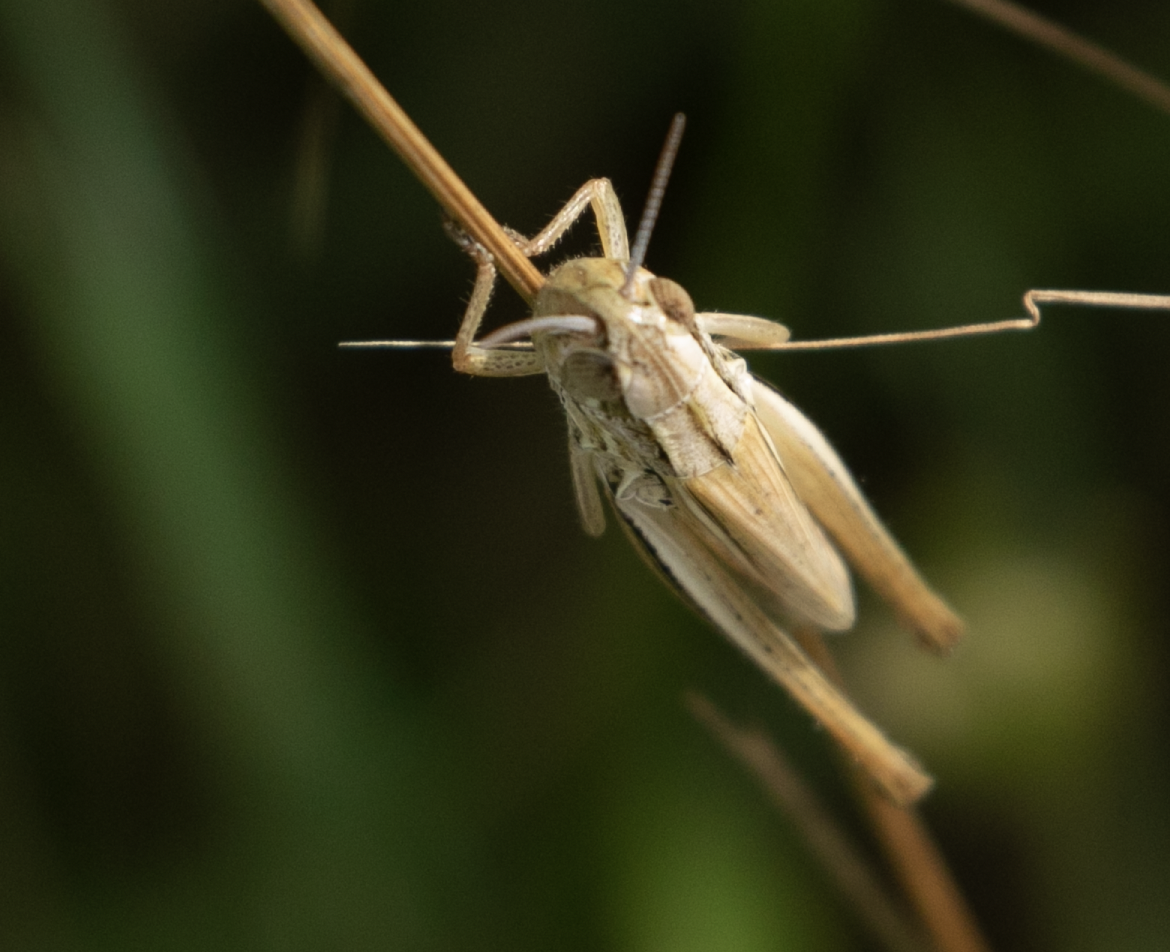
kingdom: Animalia
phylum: Arthropoda
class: Insecta
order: Orthoptera
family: Acrididae
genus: Euchorthippus
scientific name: Euchorthippus declivus
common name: Common straw grasshopper
